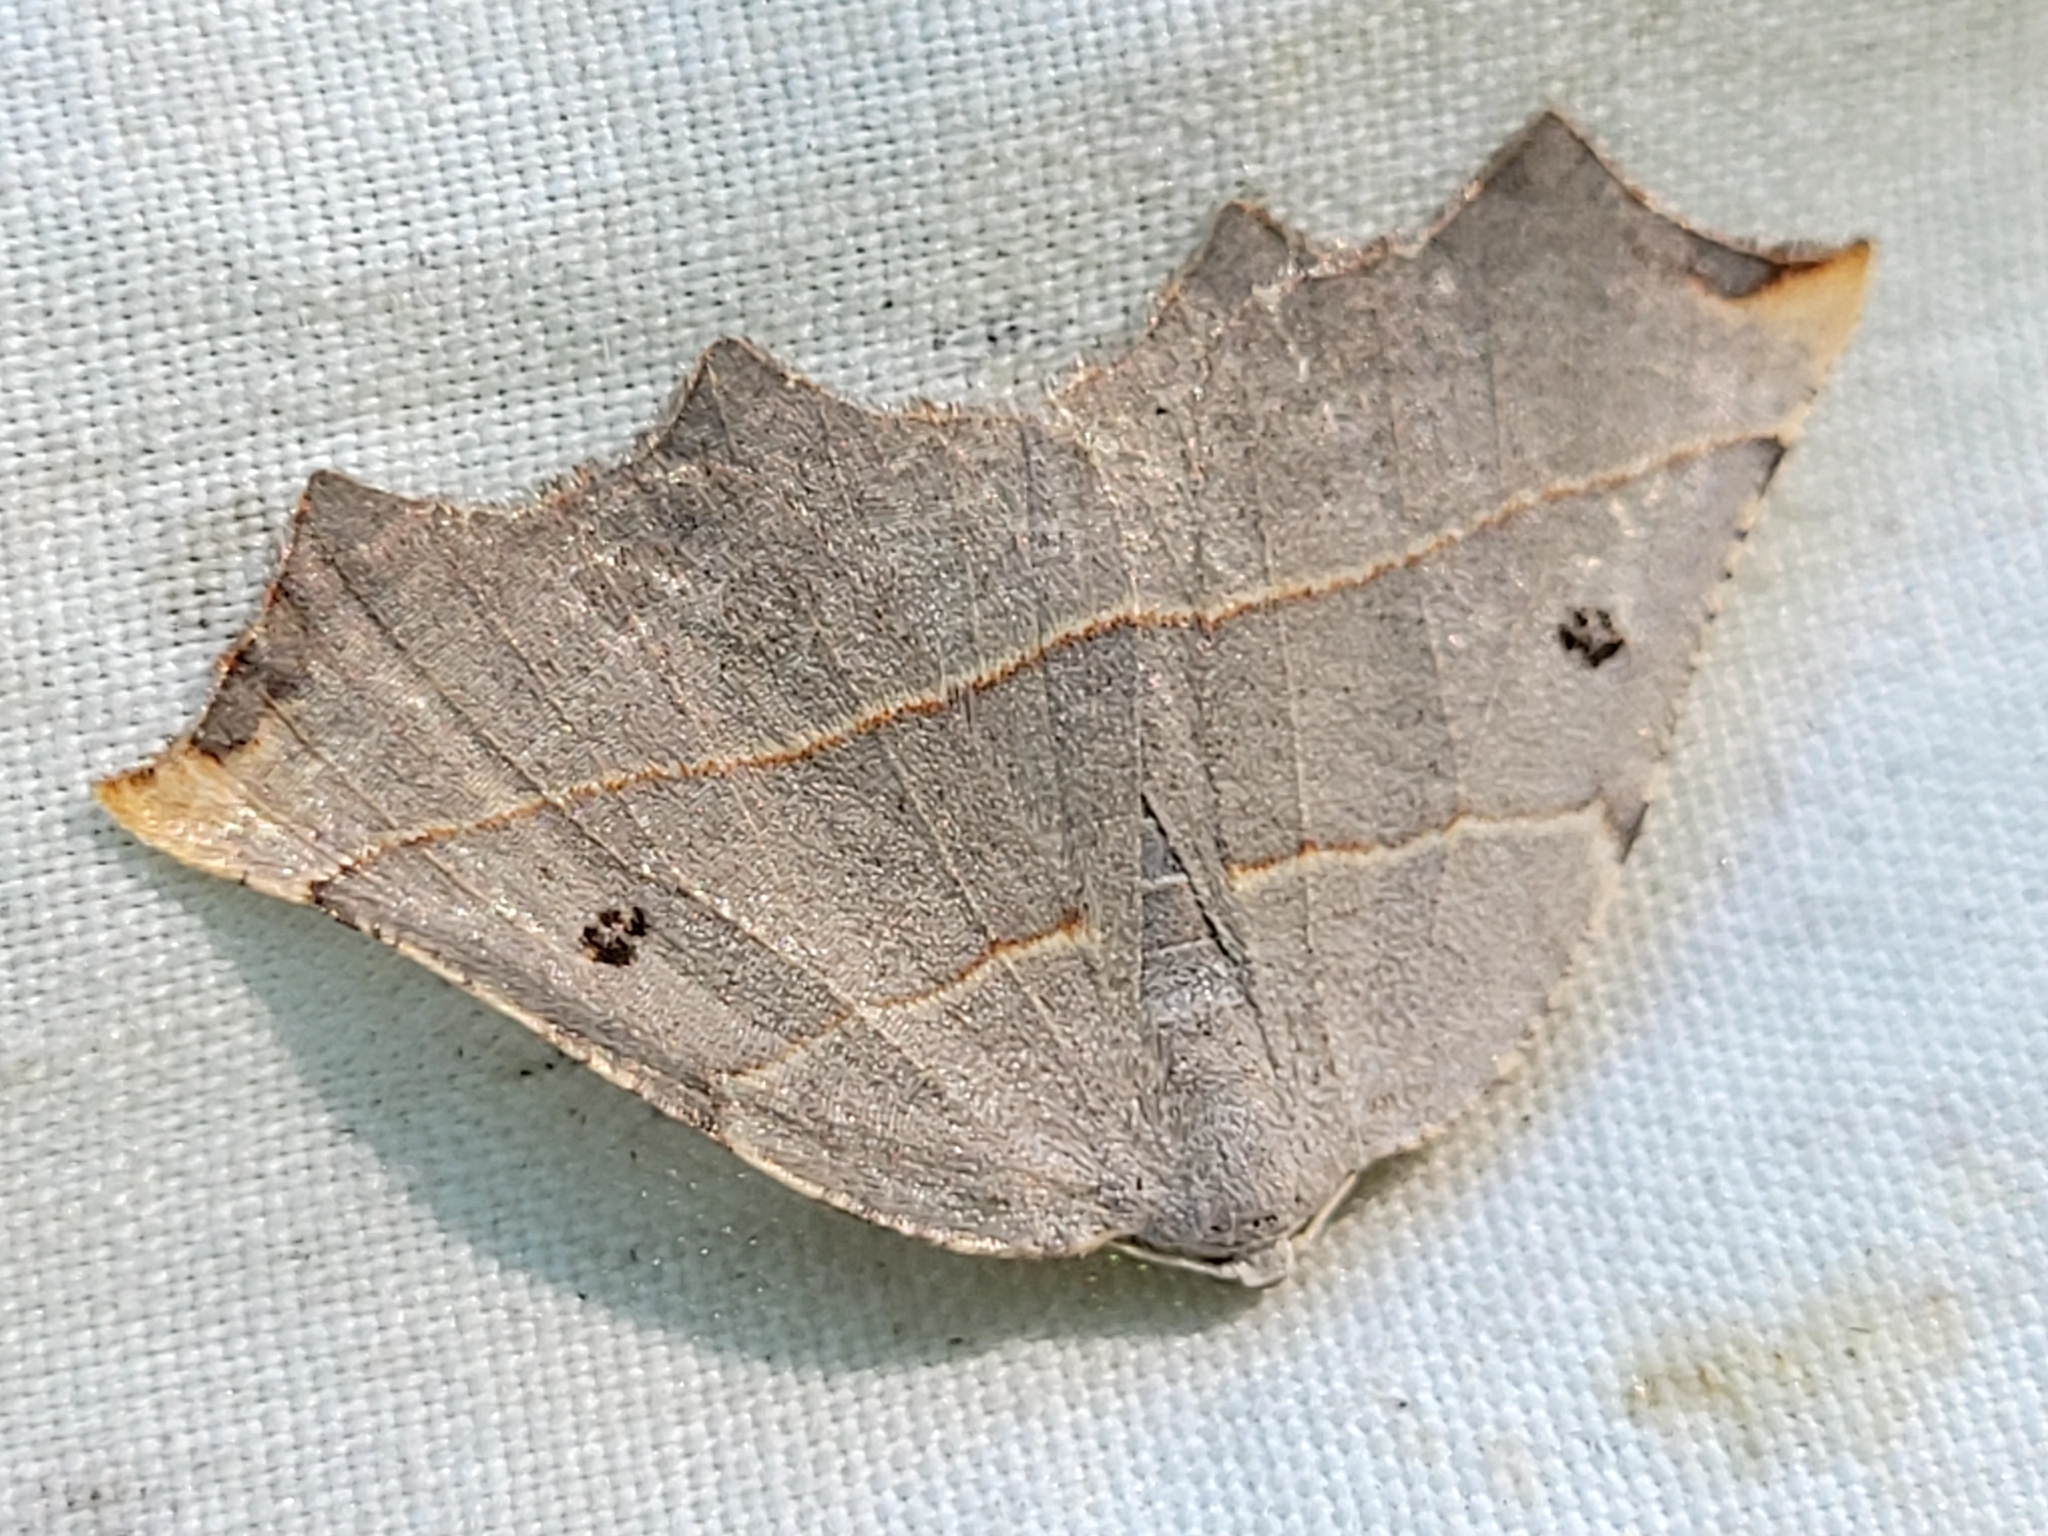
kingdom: Animalia
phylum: Arthropoda
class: Insecta
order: Lepidoptera
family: Geometridae
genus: Metanema
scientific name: Metanema inatomaria
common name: Pale metanema
